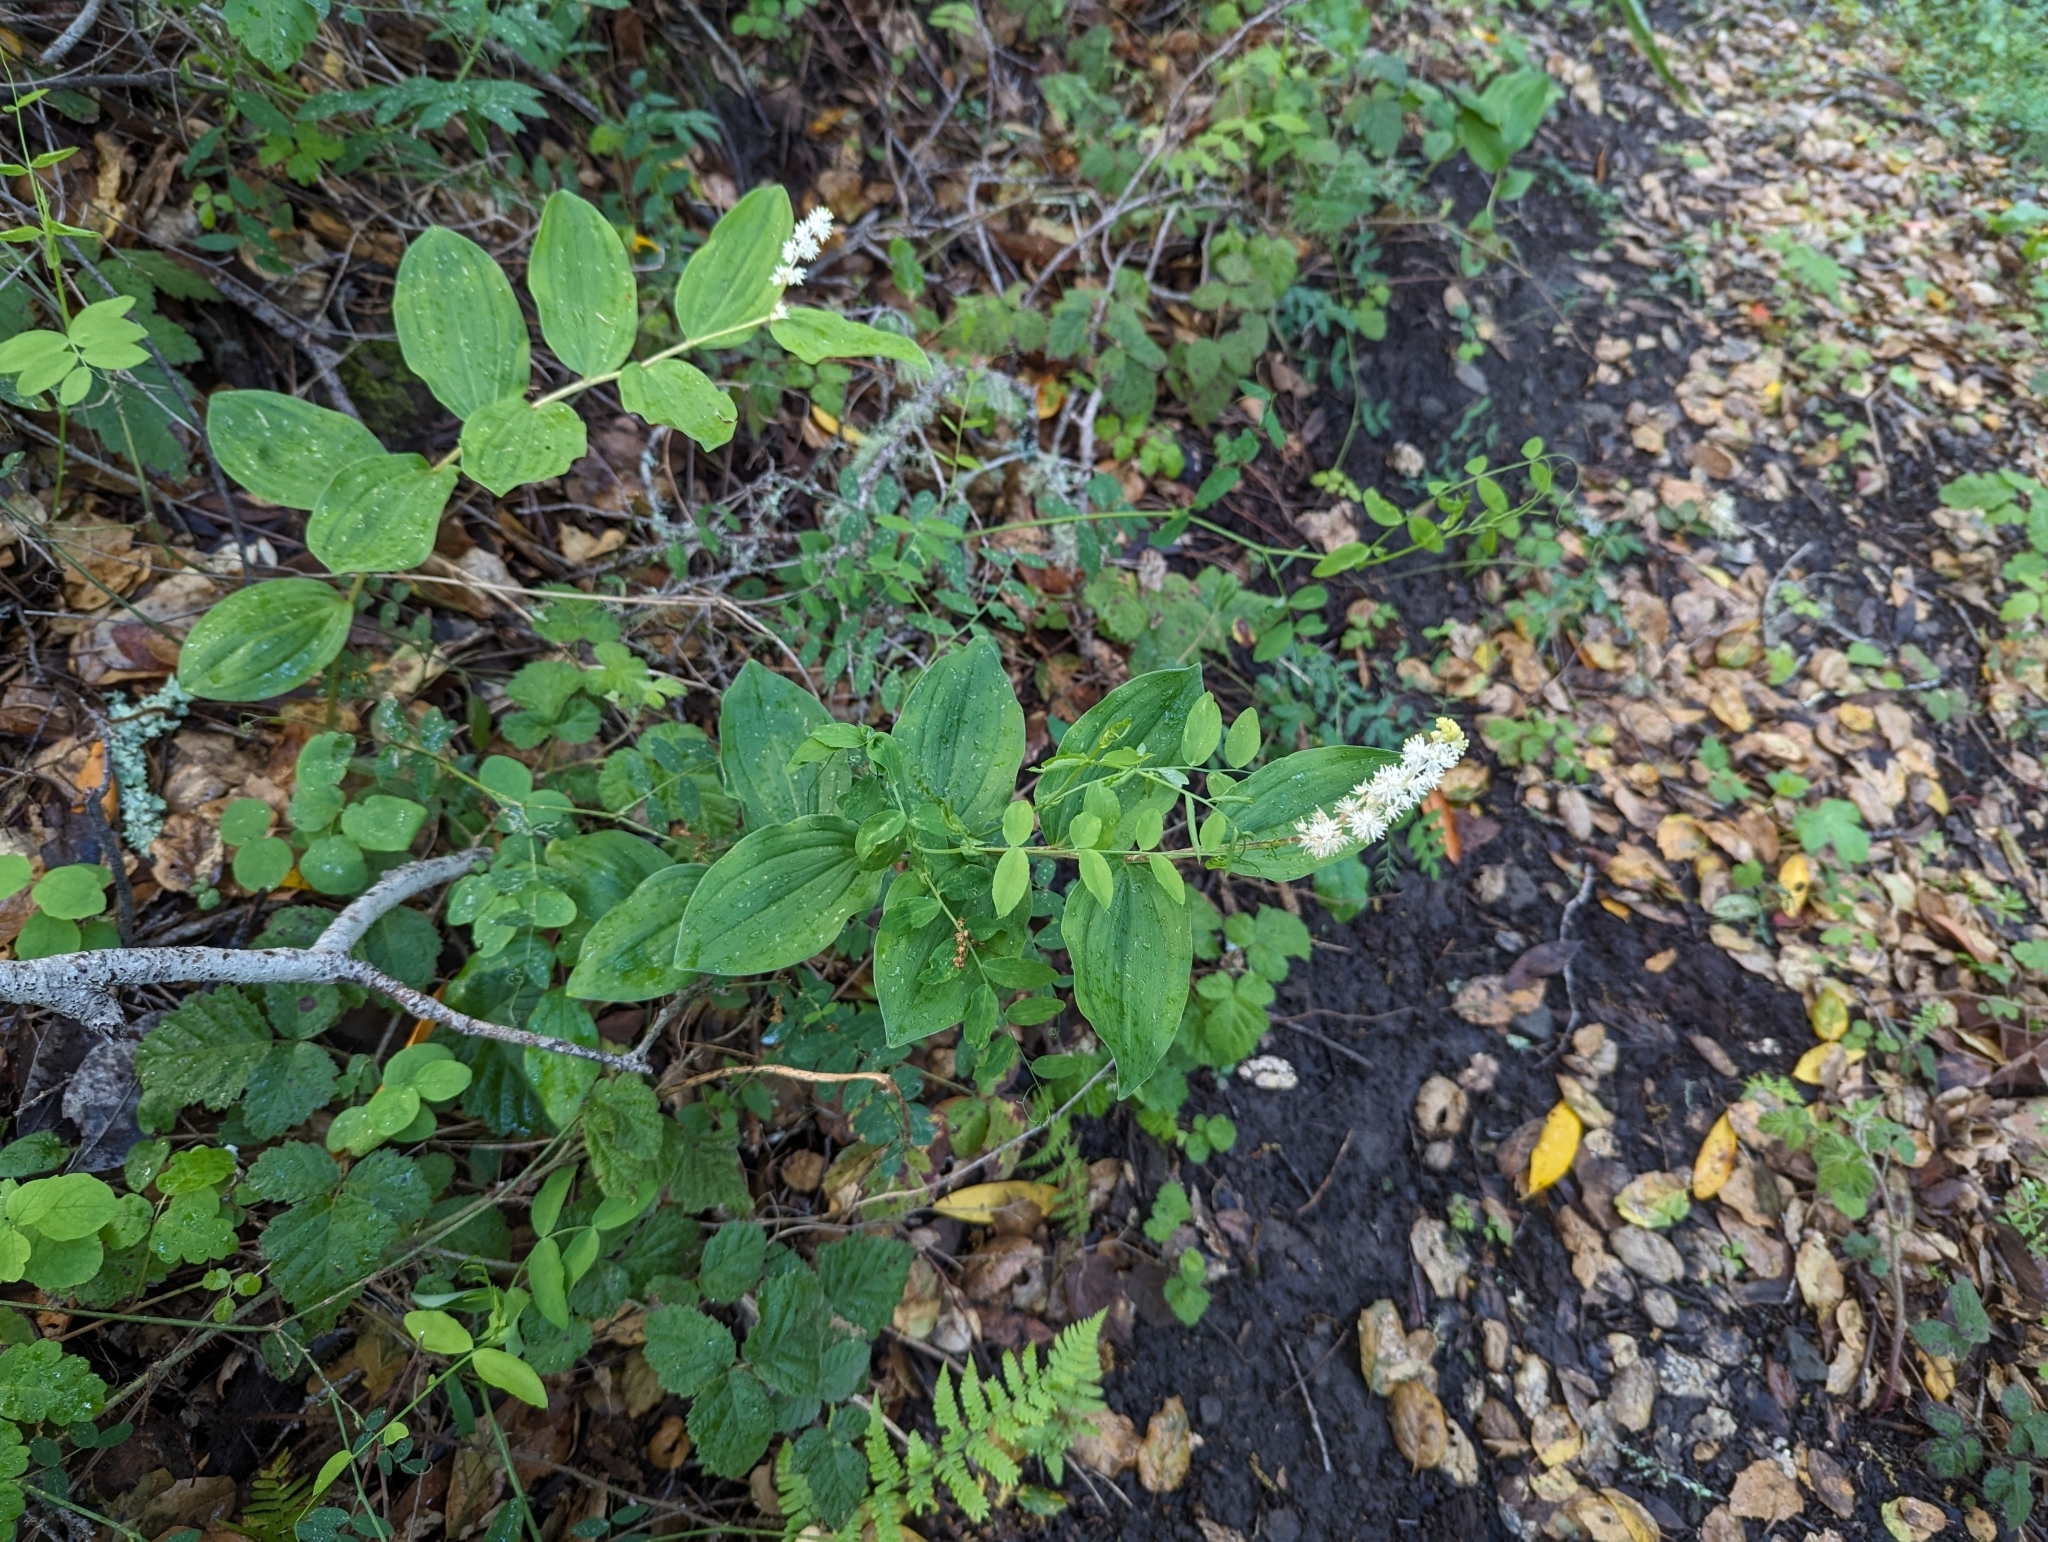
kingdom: Plantae
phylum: Tracheophyta
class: Liliopsida
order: Asparagales
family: Asparagaceae
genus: Maianthemum
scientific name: Maianthemum racemosum
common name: False spikenard
